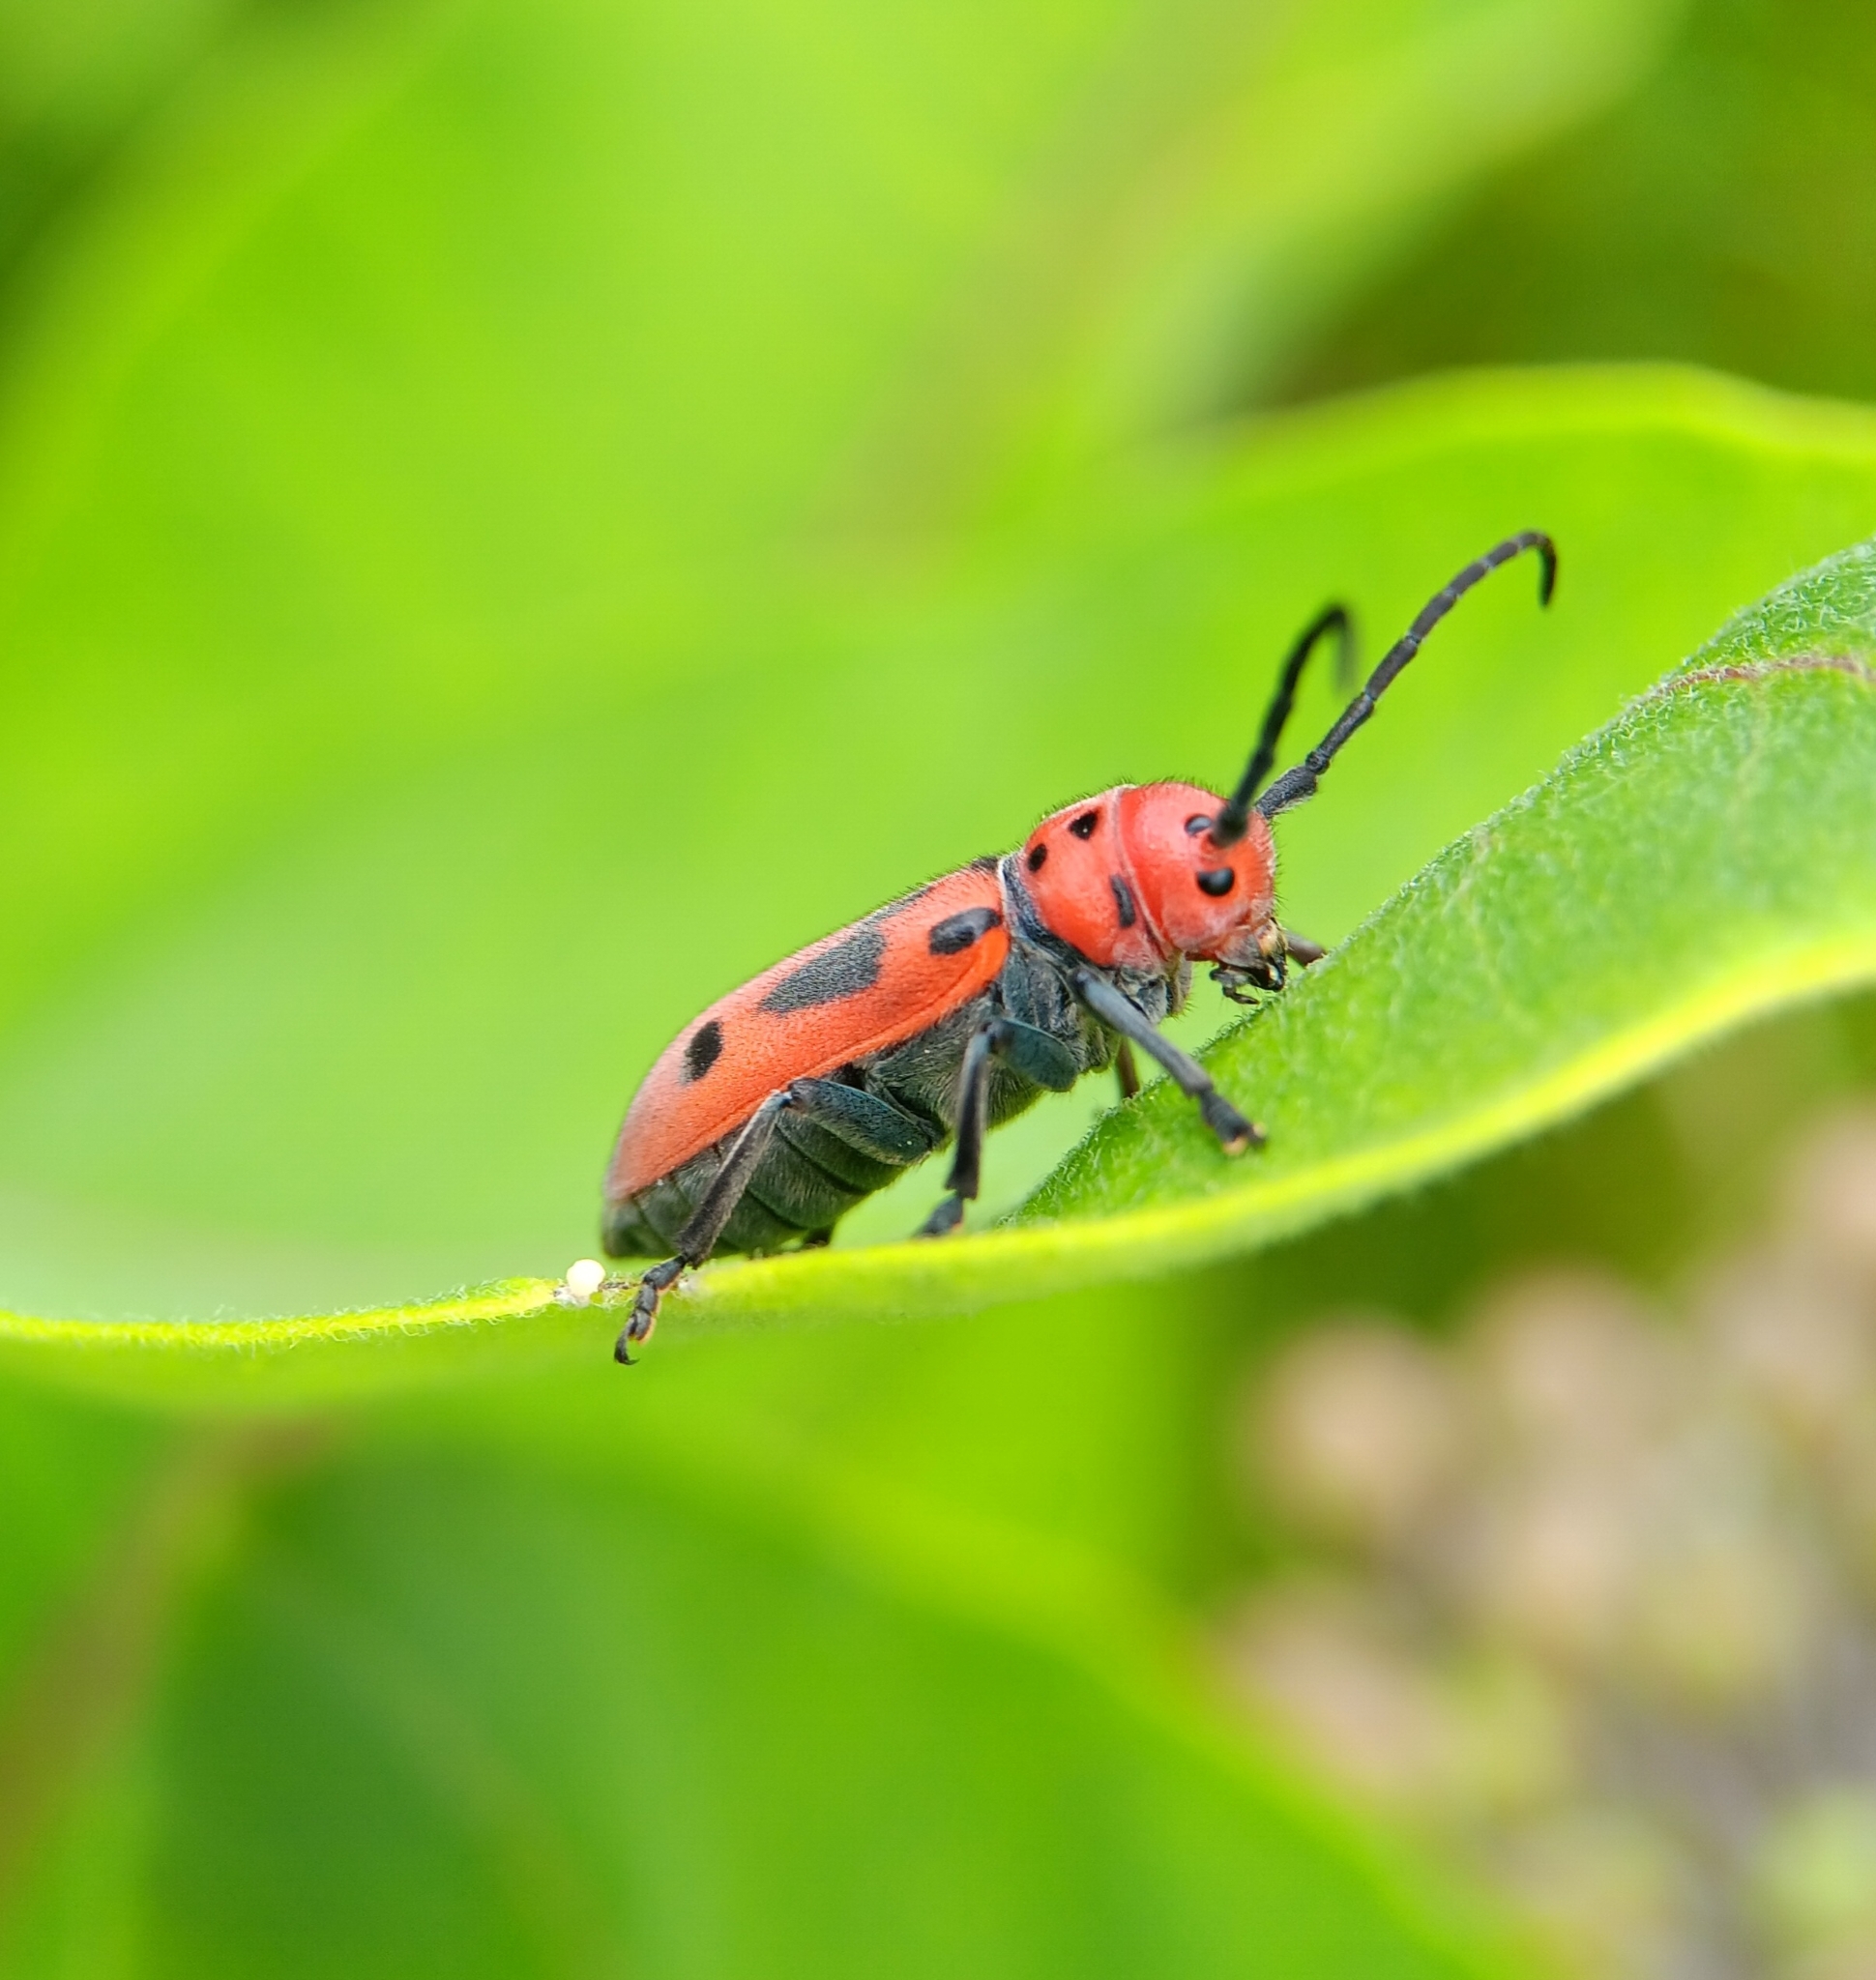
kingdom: Animalia
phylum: Arthropoda
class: Insecta
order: Coleoptera
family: Cerambycidae
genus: Tetraopes
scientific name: Tetraopes tetrophthalmus
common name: Red milkweed beetle
